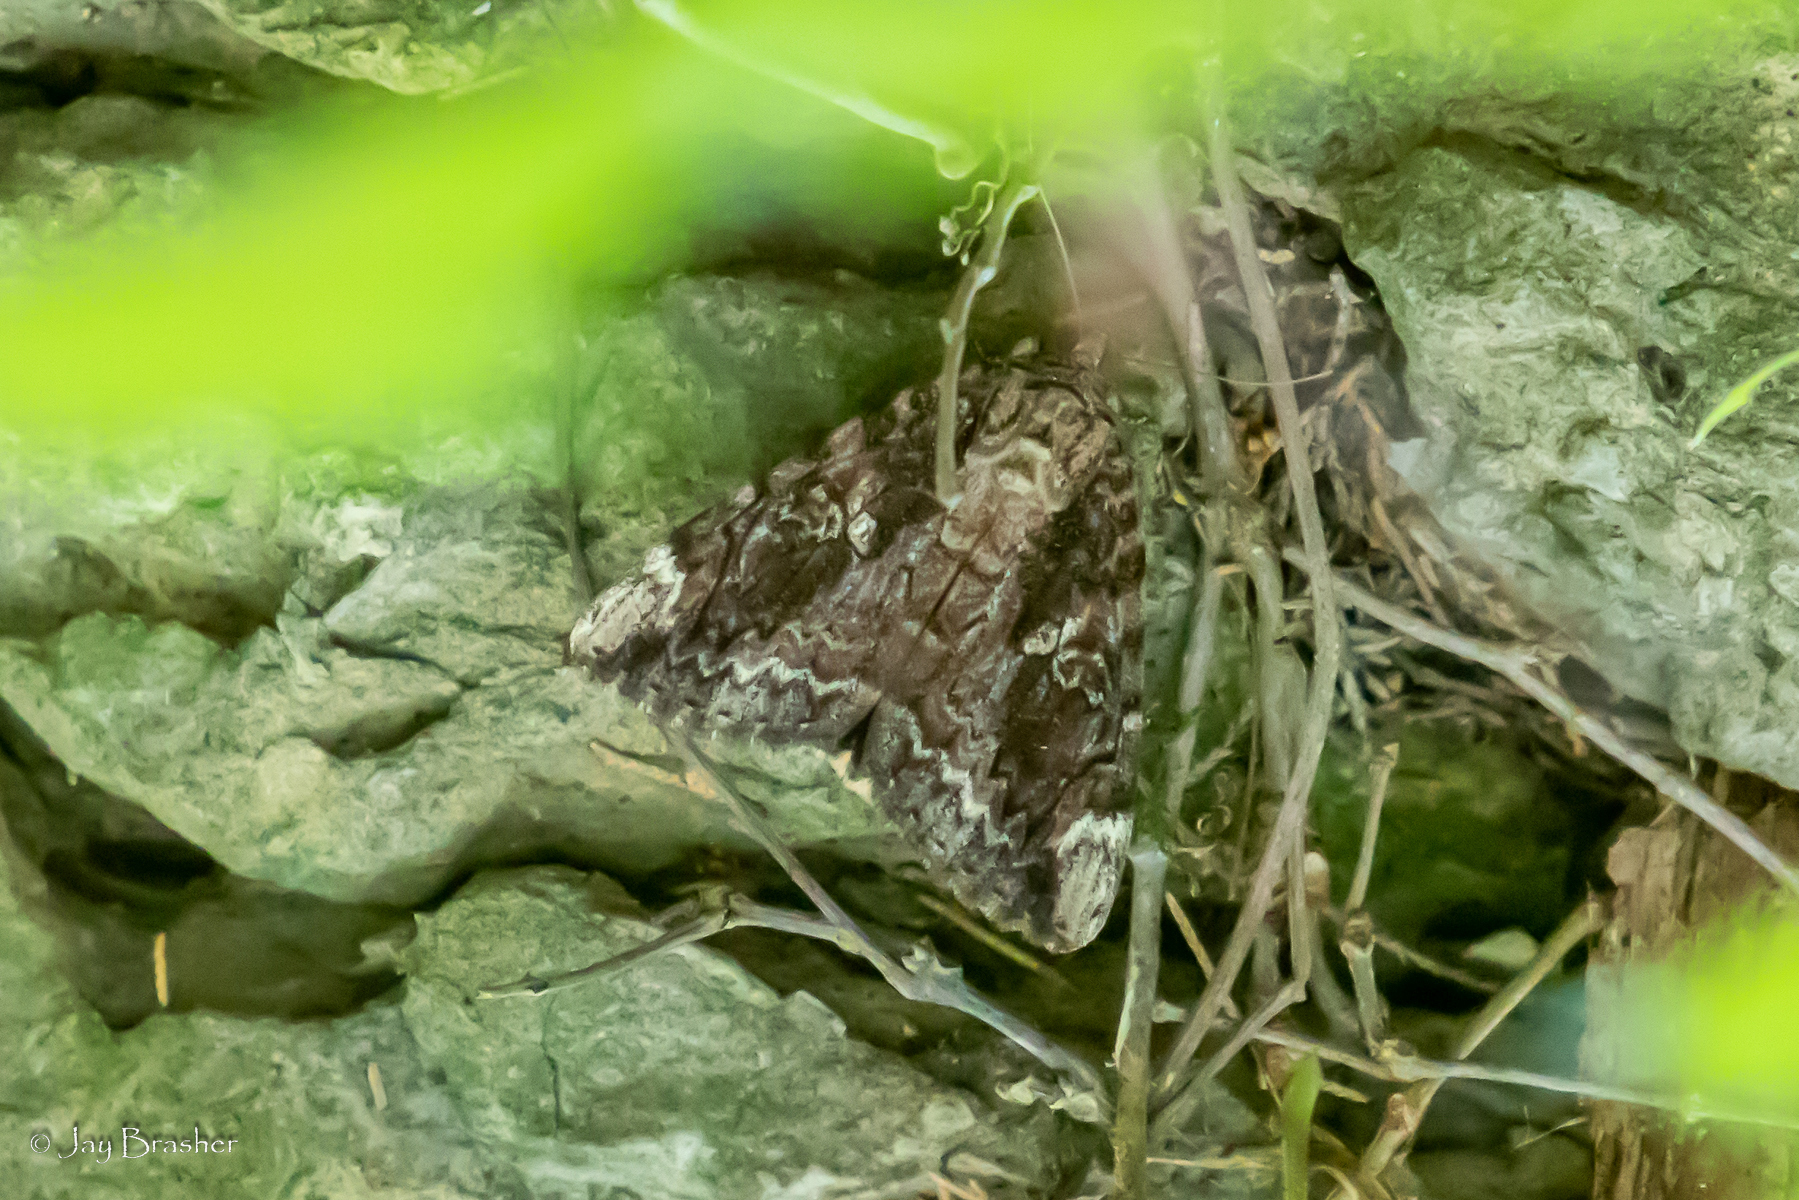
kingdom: Animalia
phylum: Arthropoda
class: Insecta
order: Lepidoptera
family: Erebidae
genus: Catocala
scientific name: Catocala innubens
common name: Betrothed underwing
